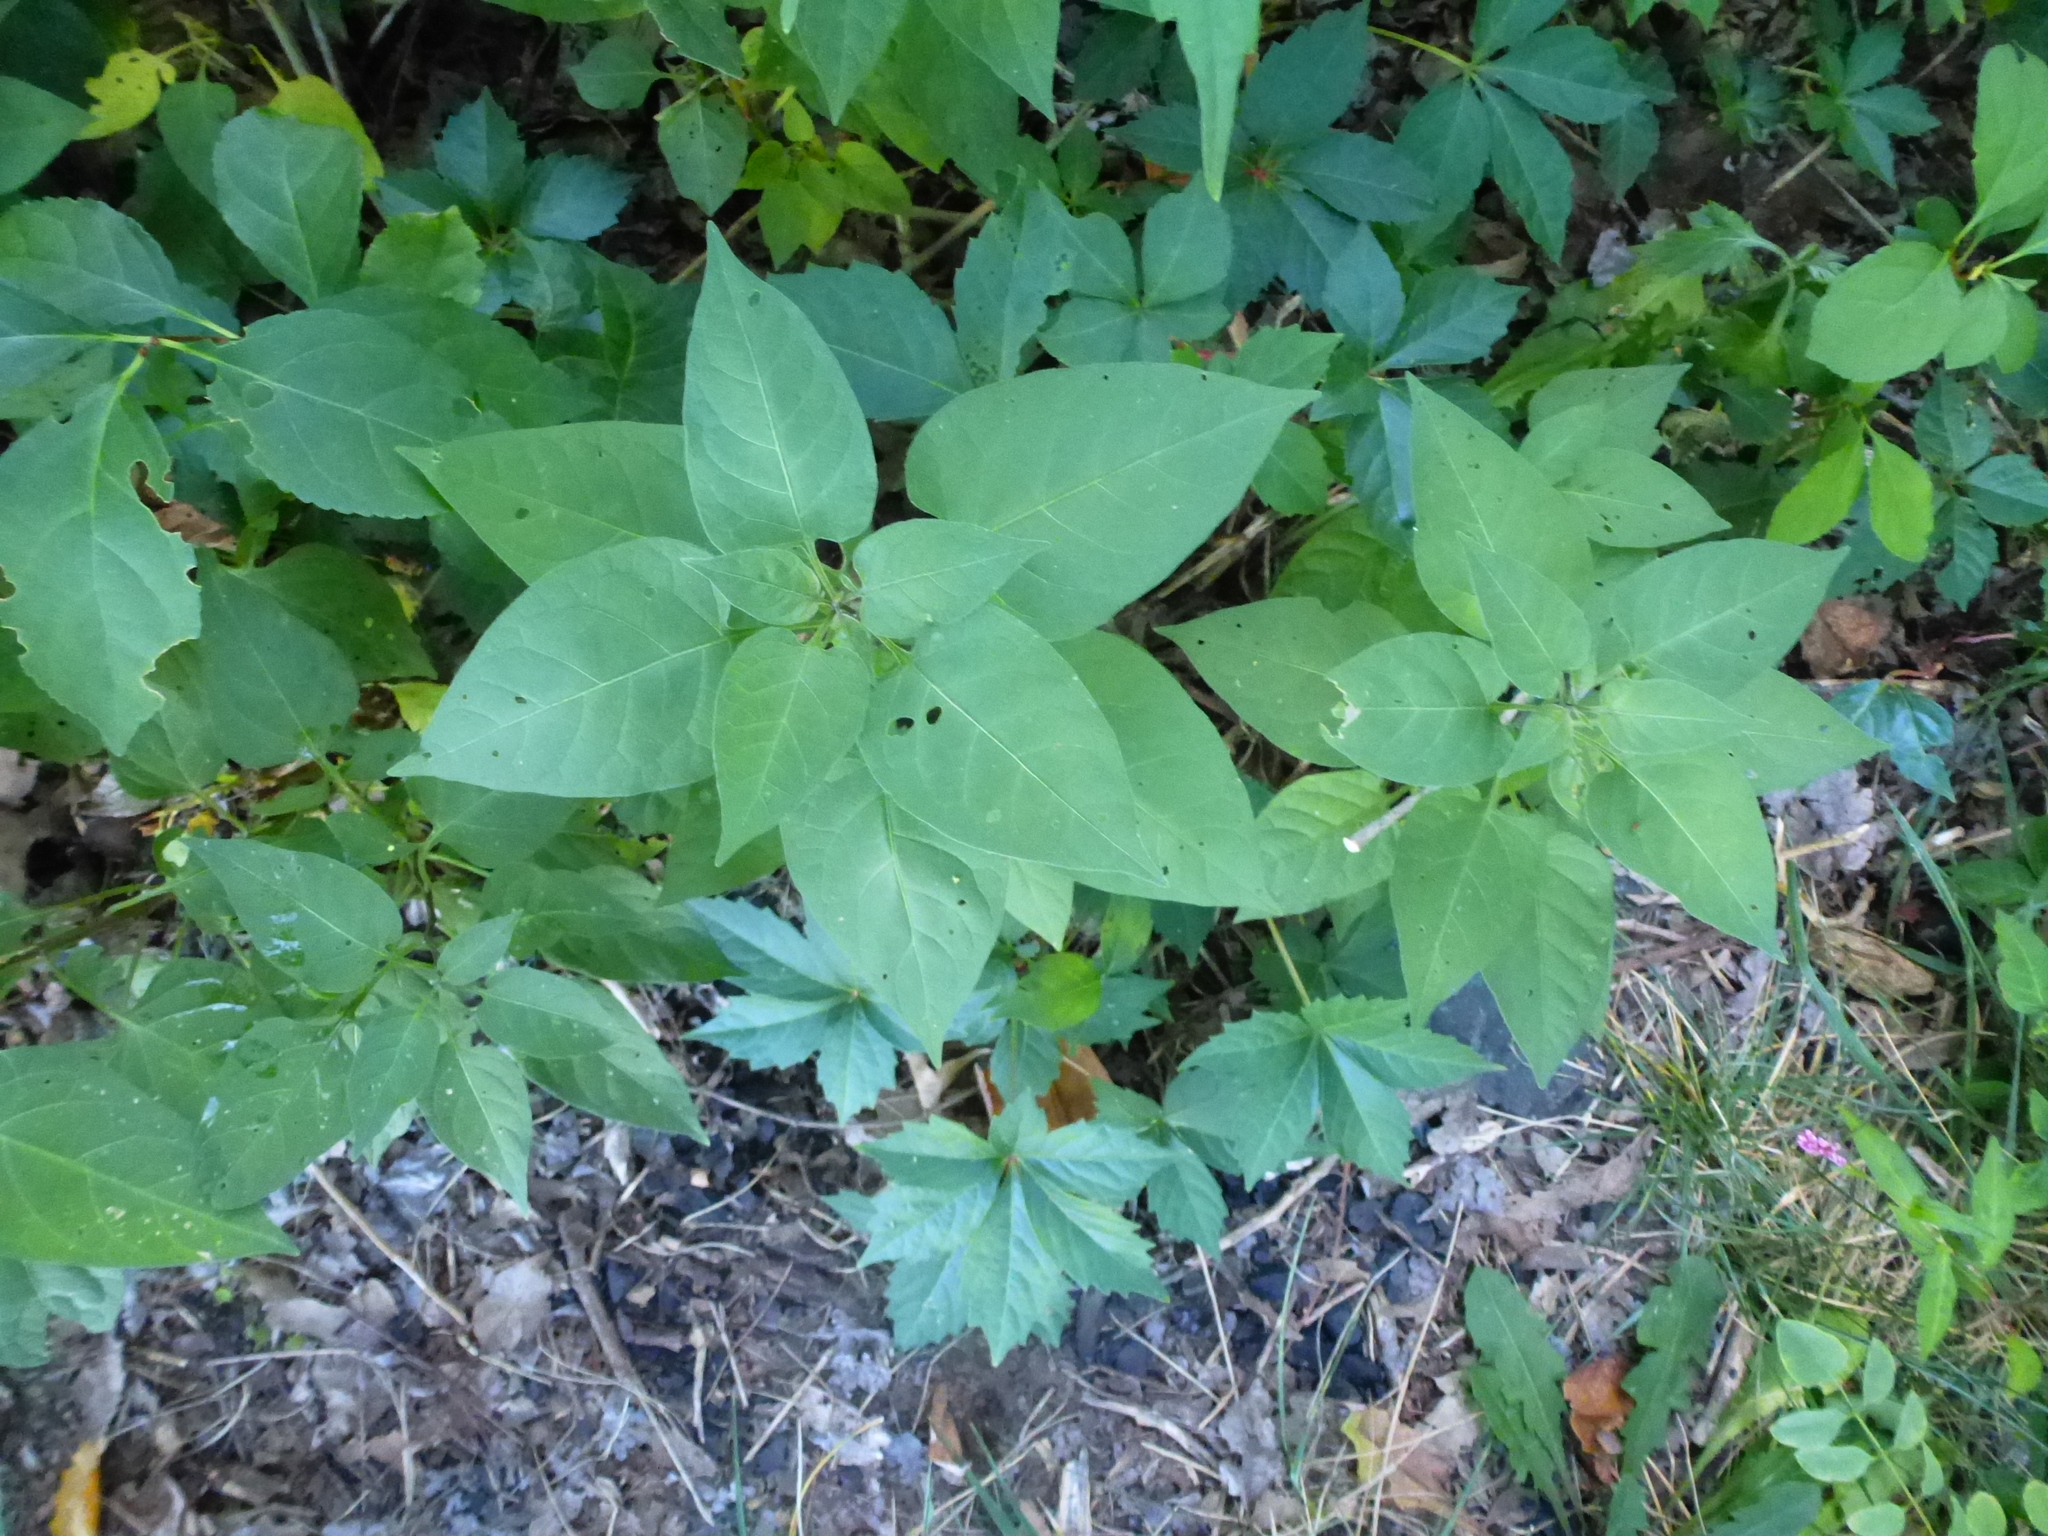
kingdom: Plantae
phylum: Tracheophyta
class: Magnoliopsida
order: Solanales
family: Solanaceae
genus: Solanum
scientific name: Solanum dulcamara
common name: Climbing nightshade
